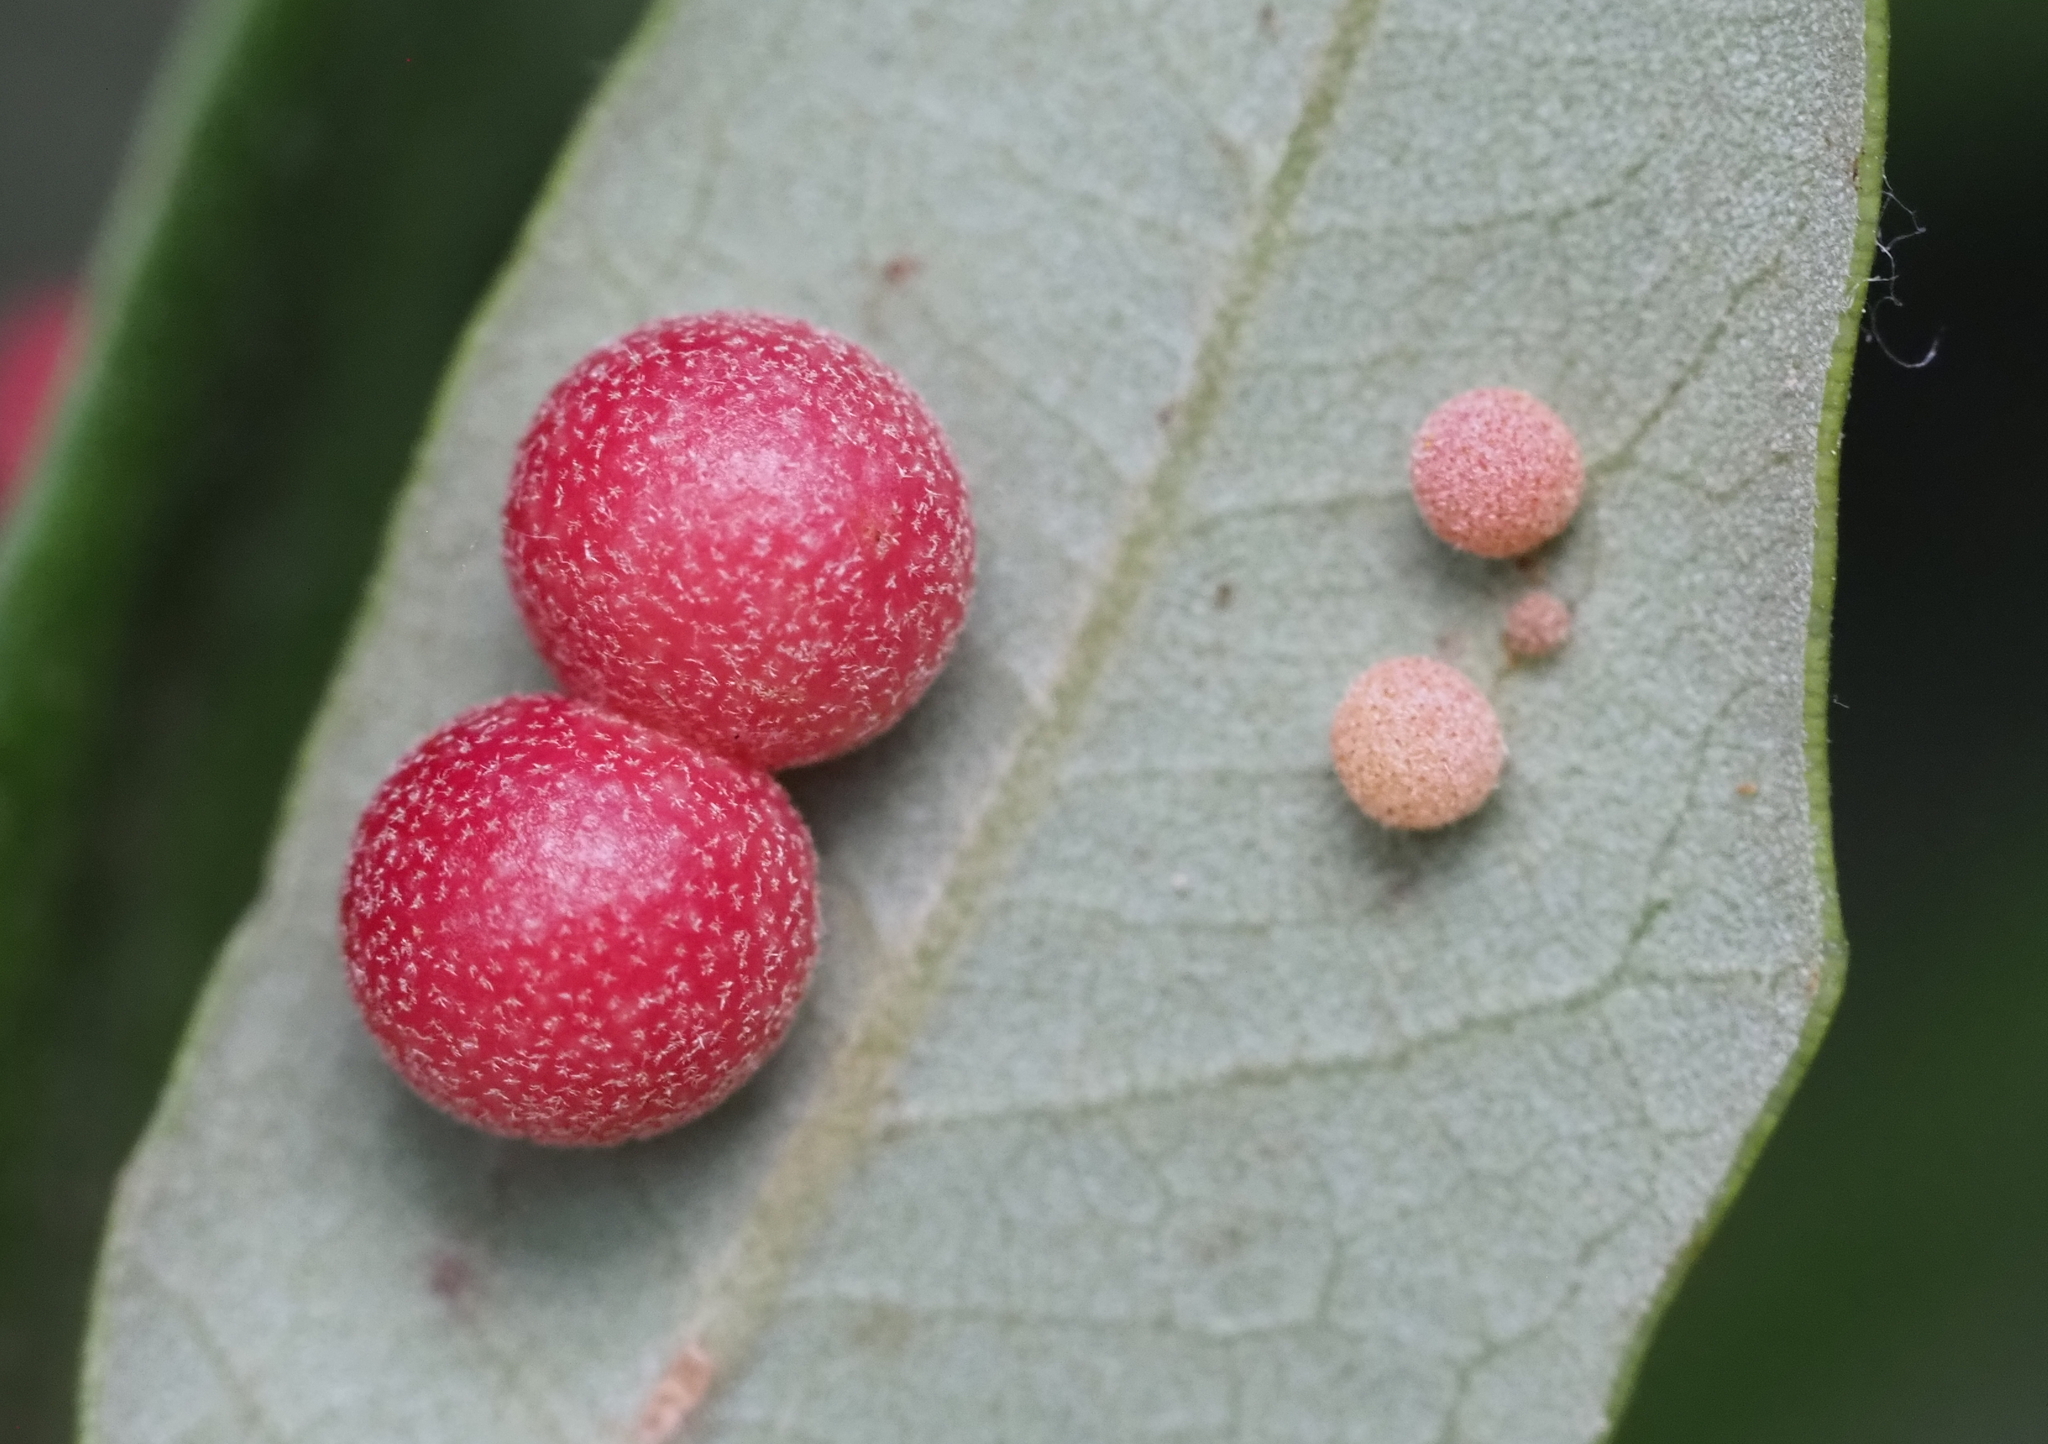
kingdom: Animalia
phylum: Arthropoda
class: Insecta
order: Hymenoptera
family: Cynipidae
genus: Belonocnema
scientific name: Belonocnema kinseyi
